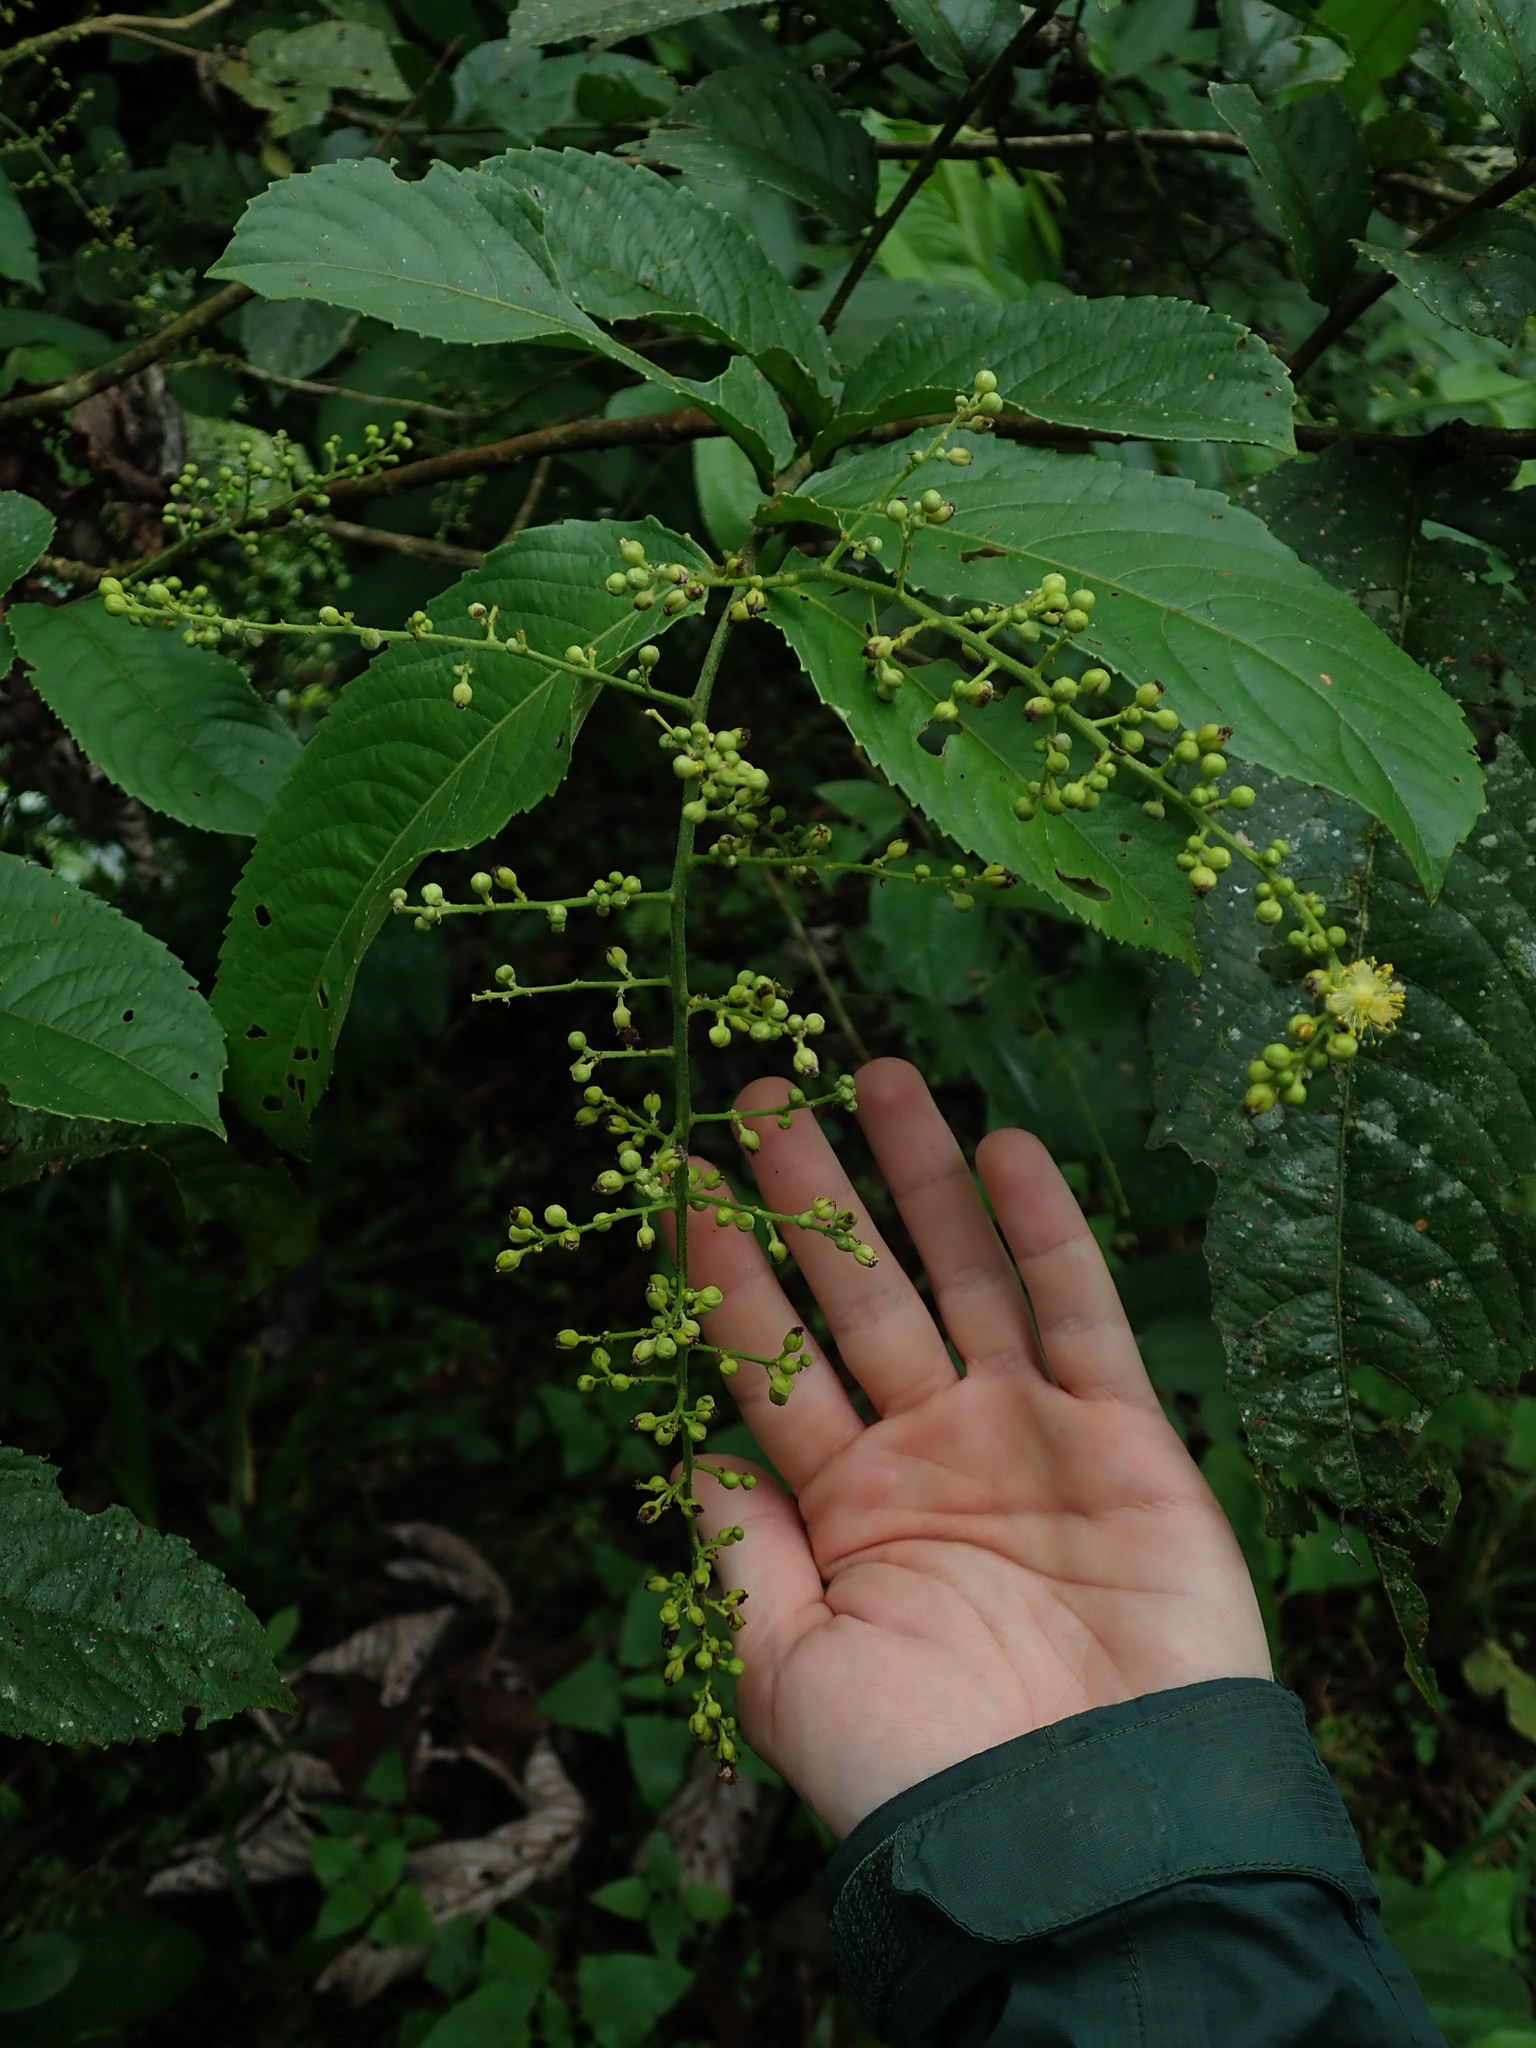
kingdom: Plantae
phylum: Tracheophyta
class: Magnoliopsida
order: Malpighiales
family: Salicaceae
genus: Banara
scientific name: Banara guianensis
